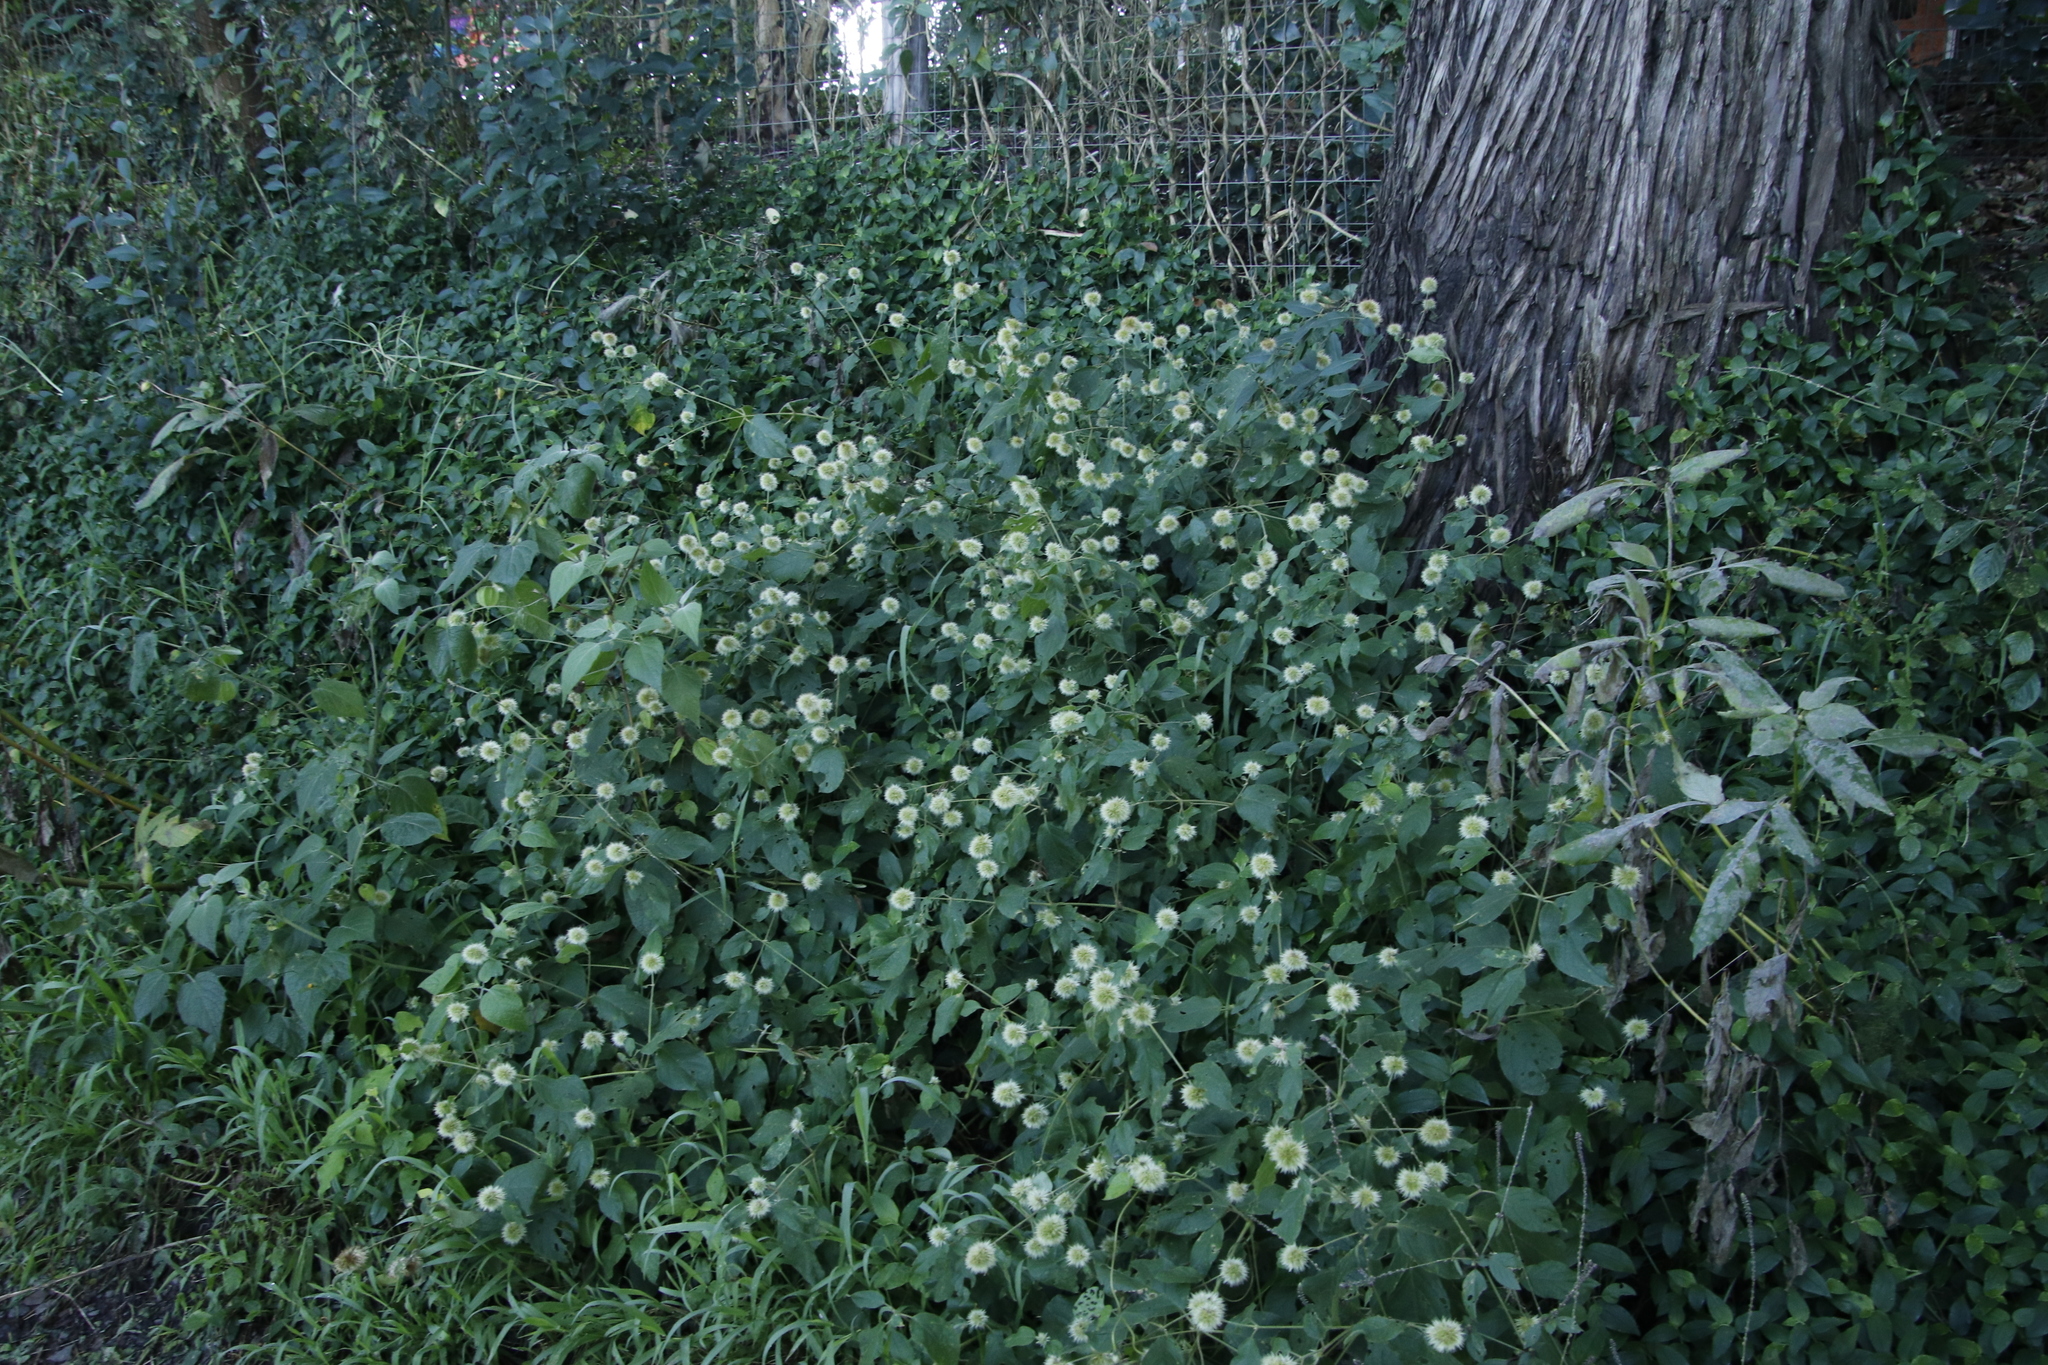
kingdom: Plantae
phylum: Tracheophyta
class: Magnoliopsida
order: Caryophyllales
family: Amaranthaceae
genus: Cyathula
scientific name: Cyathula uncinulata
